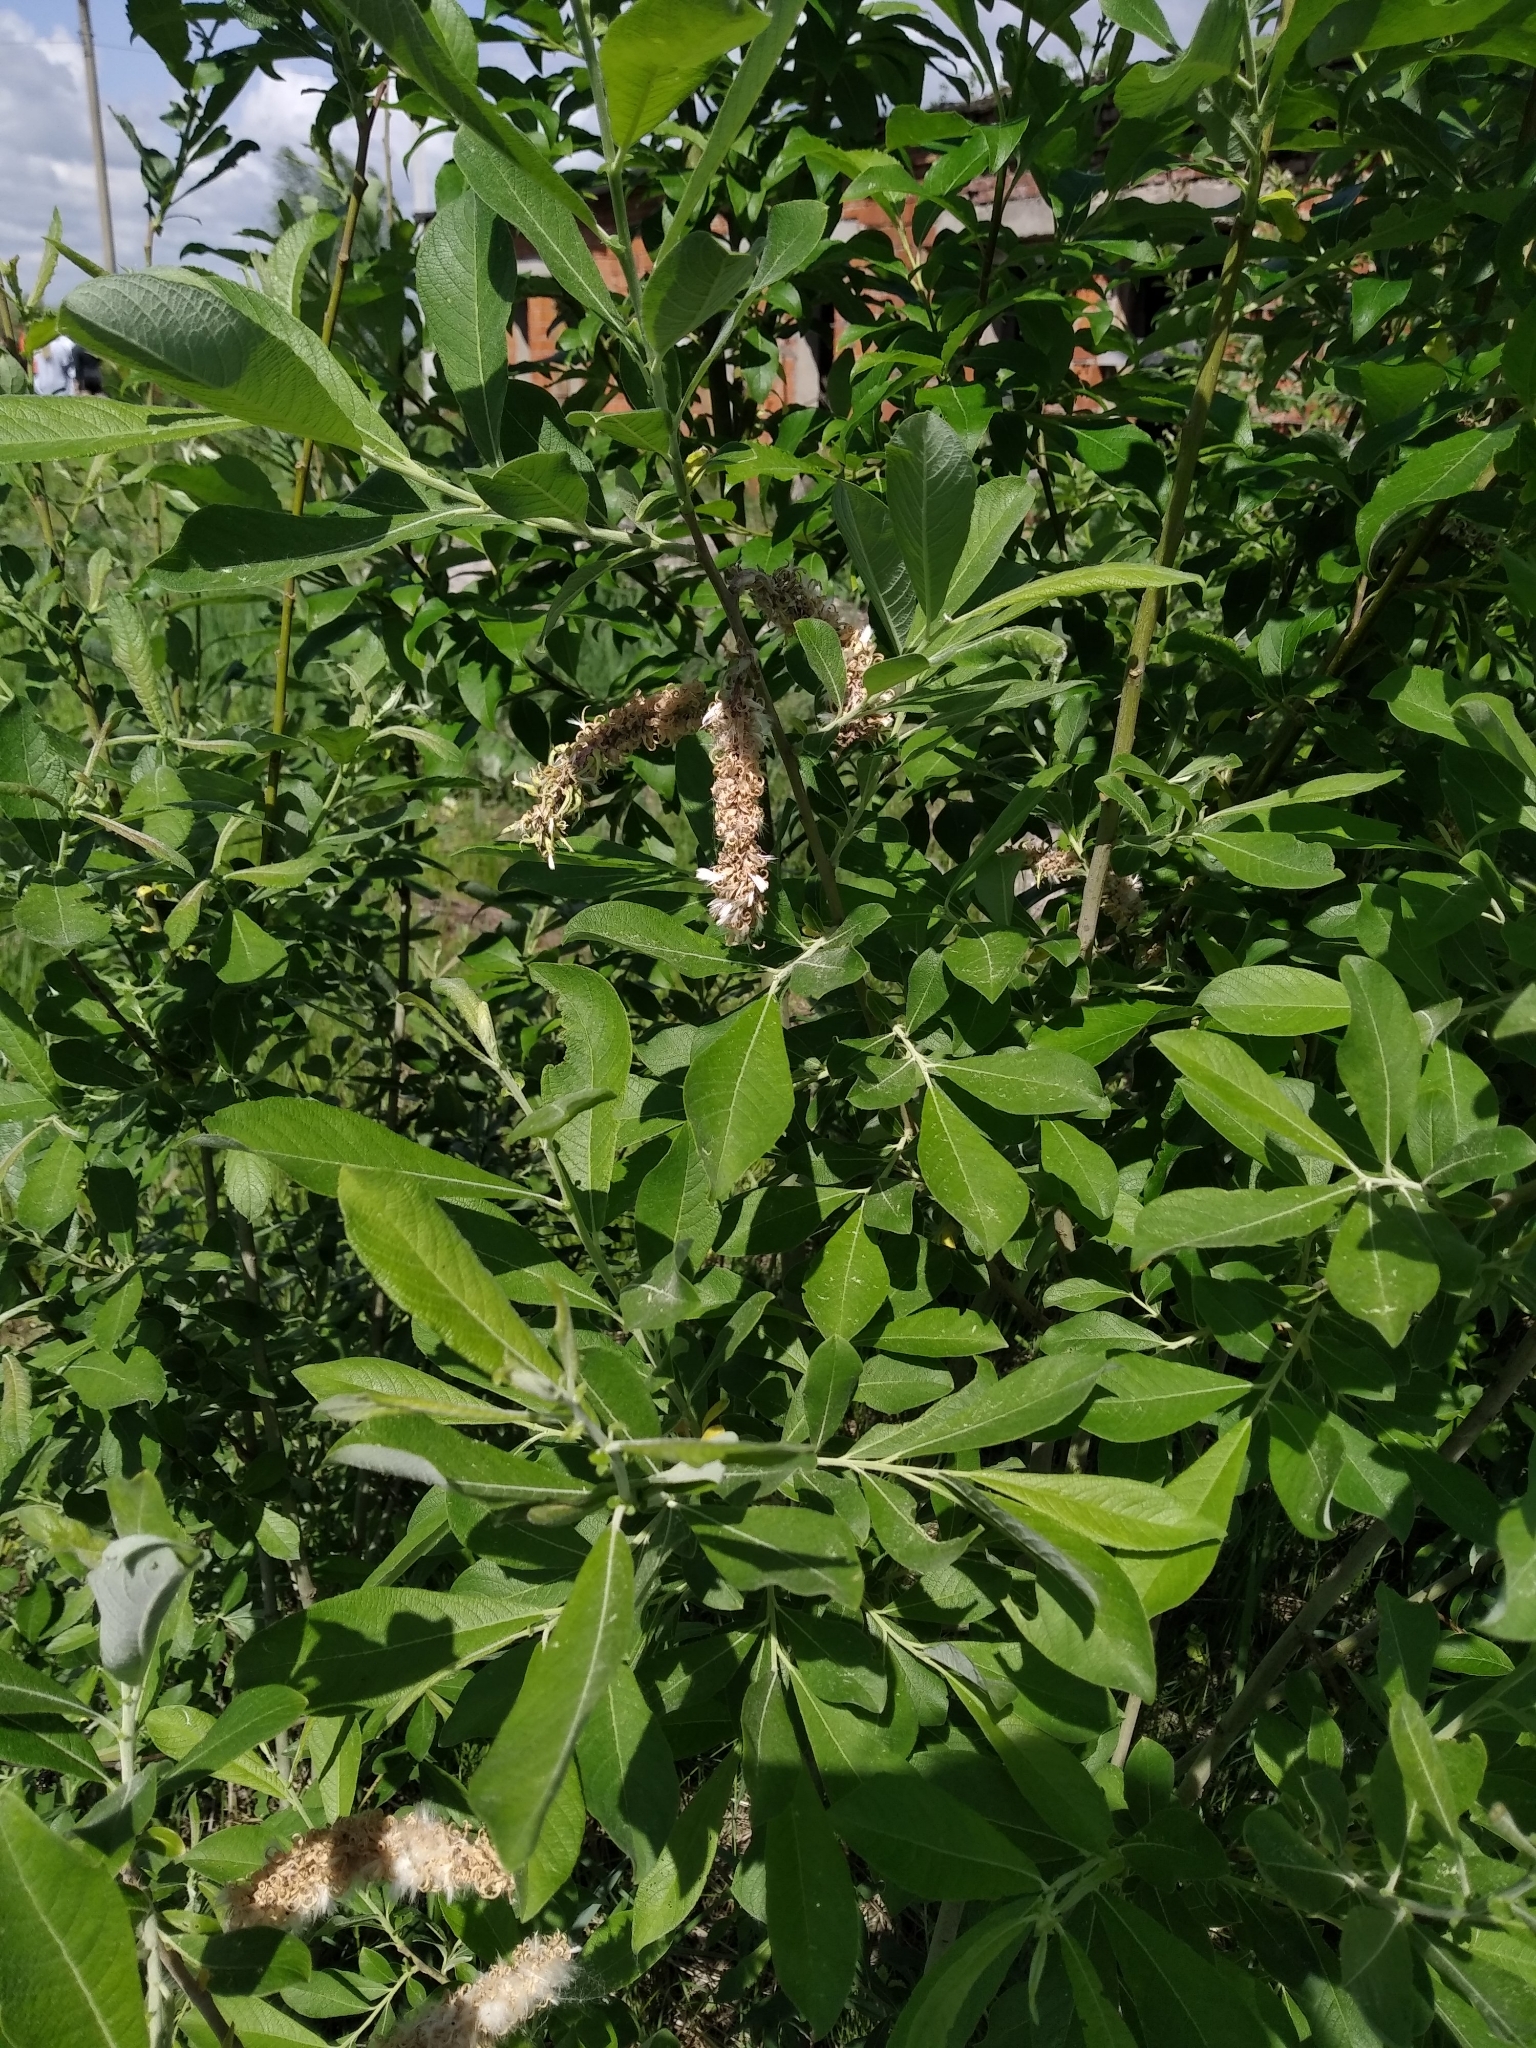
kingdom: Plantae
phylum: Tracheophyta
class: Magnoliopsida
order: Malpighiales
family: Salicaceae
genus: Salix
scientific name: Salix cinerea
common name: Common sallow
